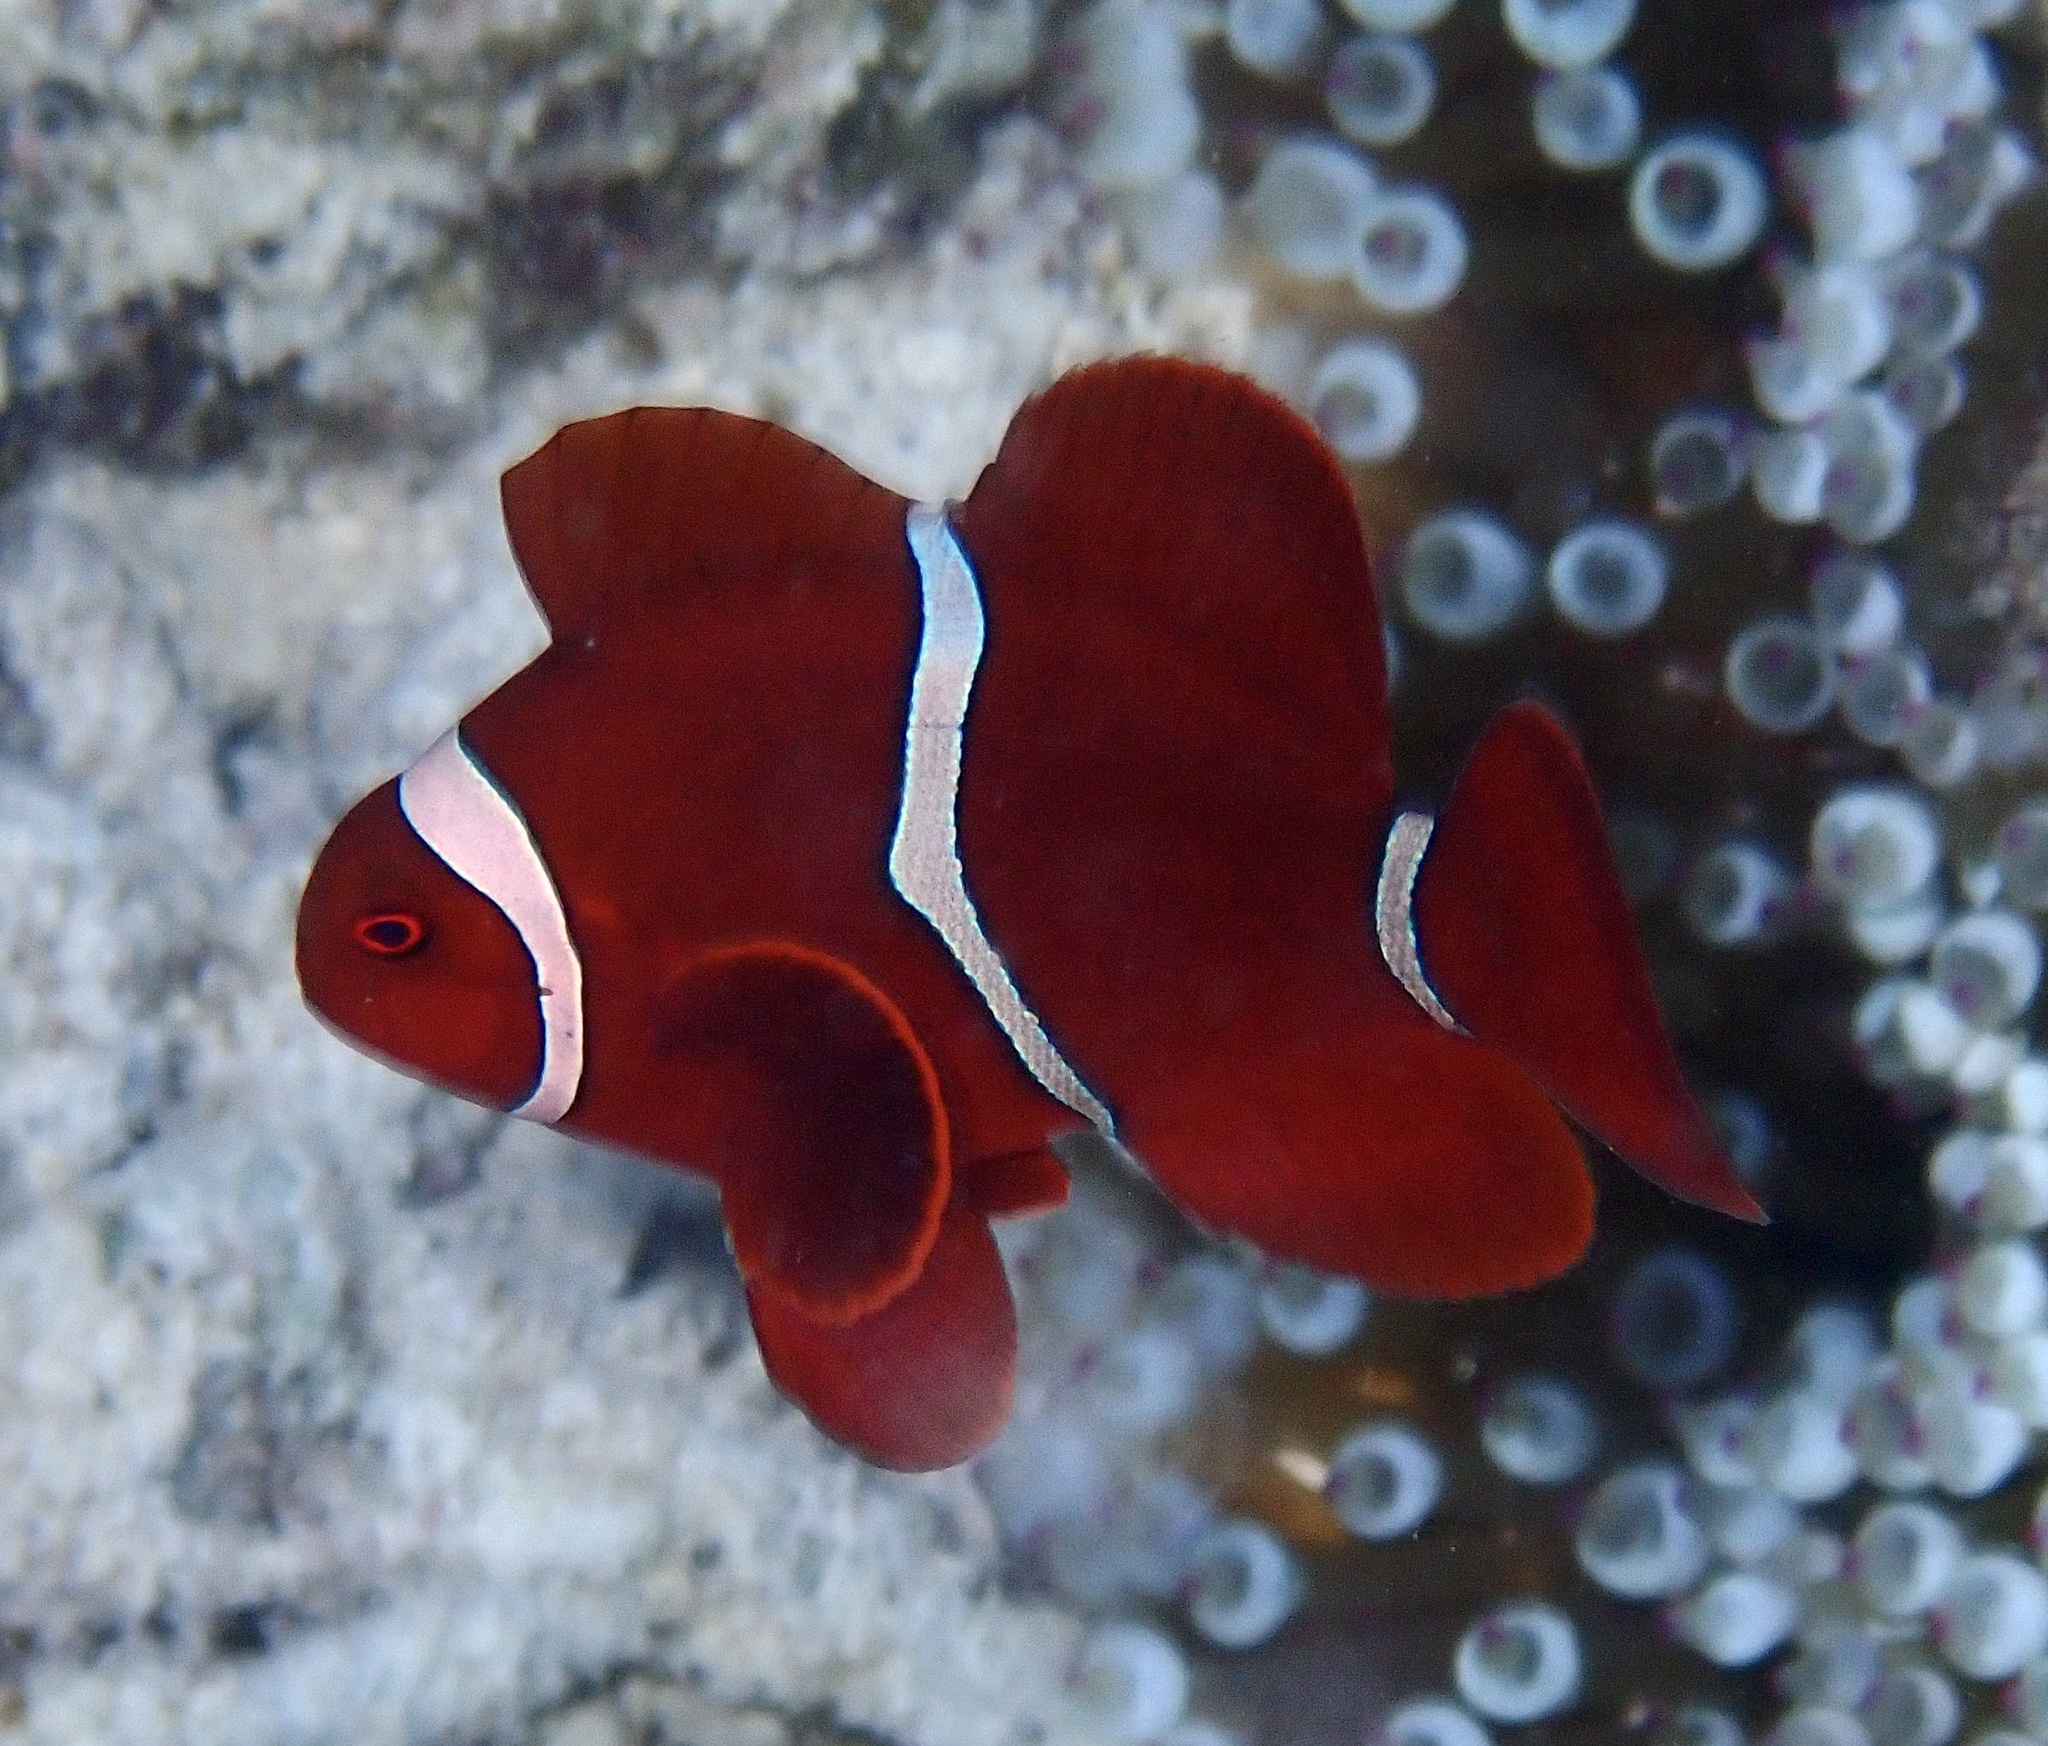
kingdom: Animalia
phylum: Chordata
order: Perciformes
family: Pomacentridae
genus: Premnas
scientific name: Premnas biaculeatus
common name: Spinecheek anemonefish
